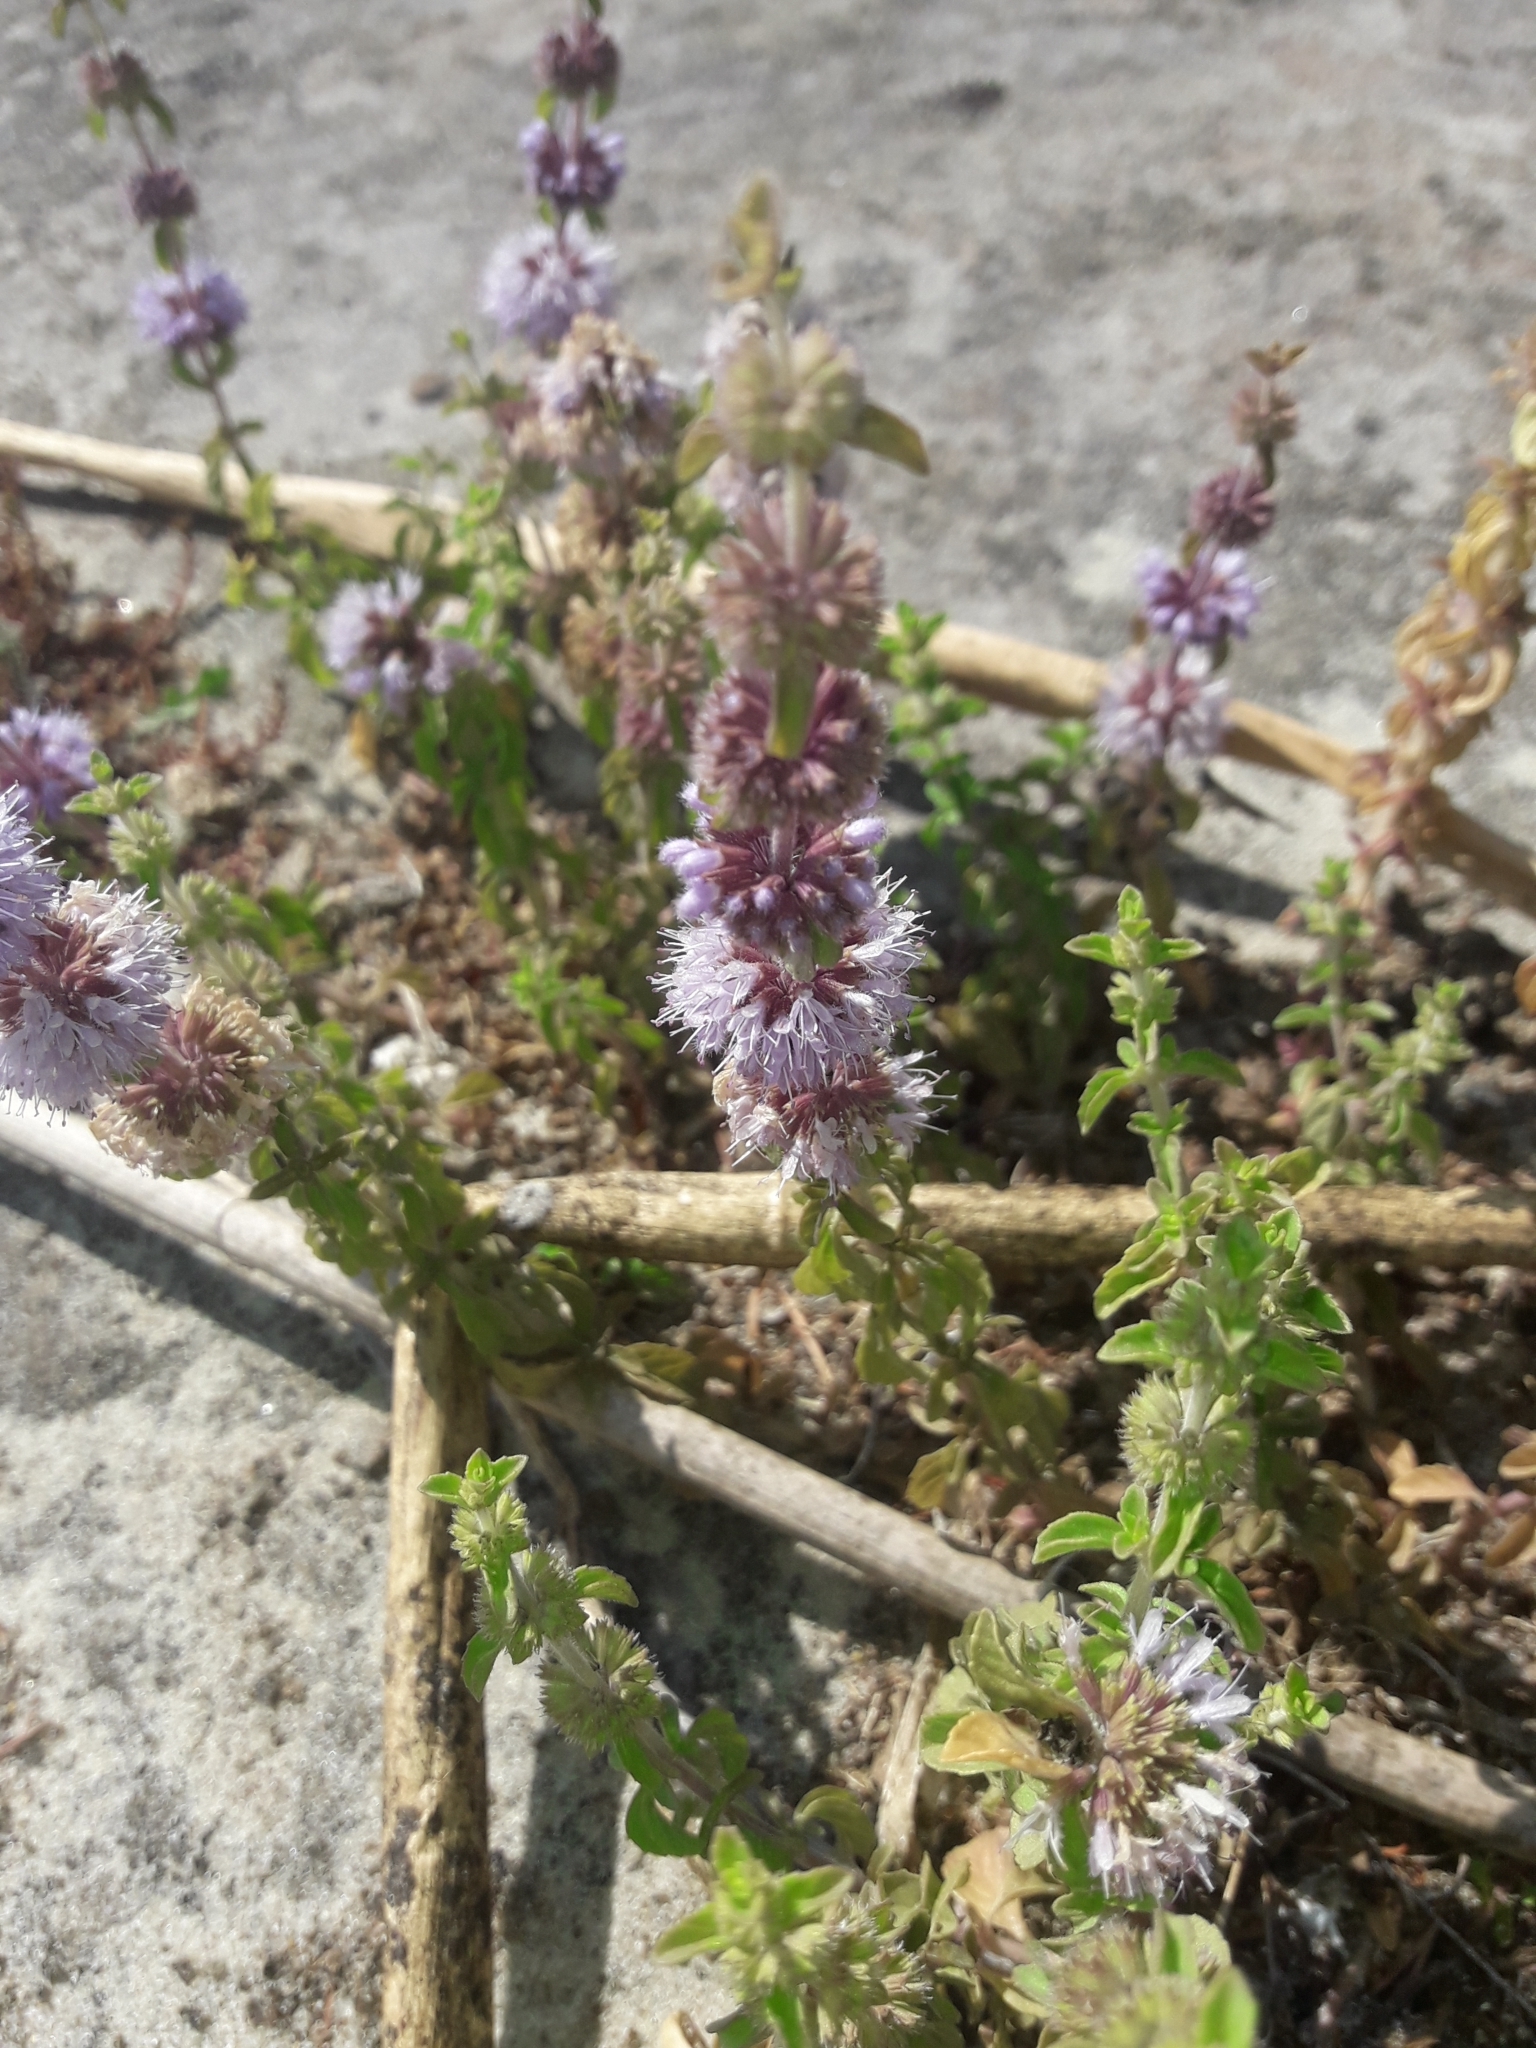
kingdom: Plantae
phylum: Tracheophyta
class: Magnoliopsida
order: Lamiales
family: Lamiaceae
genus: Mentha
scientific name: Mentha pulegium
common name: Pennyroyal
